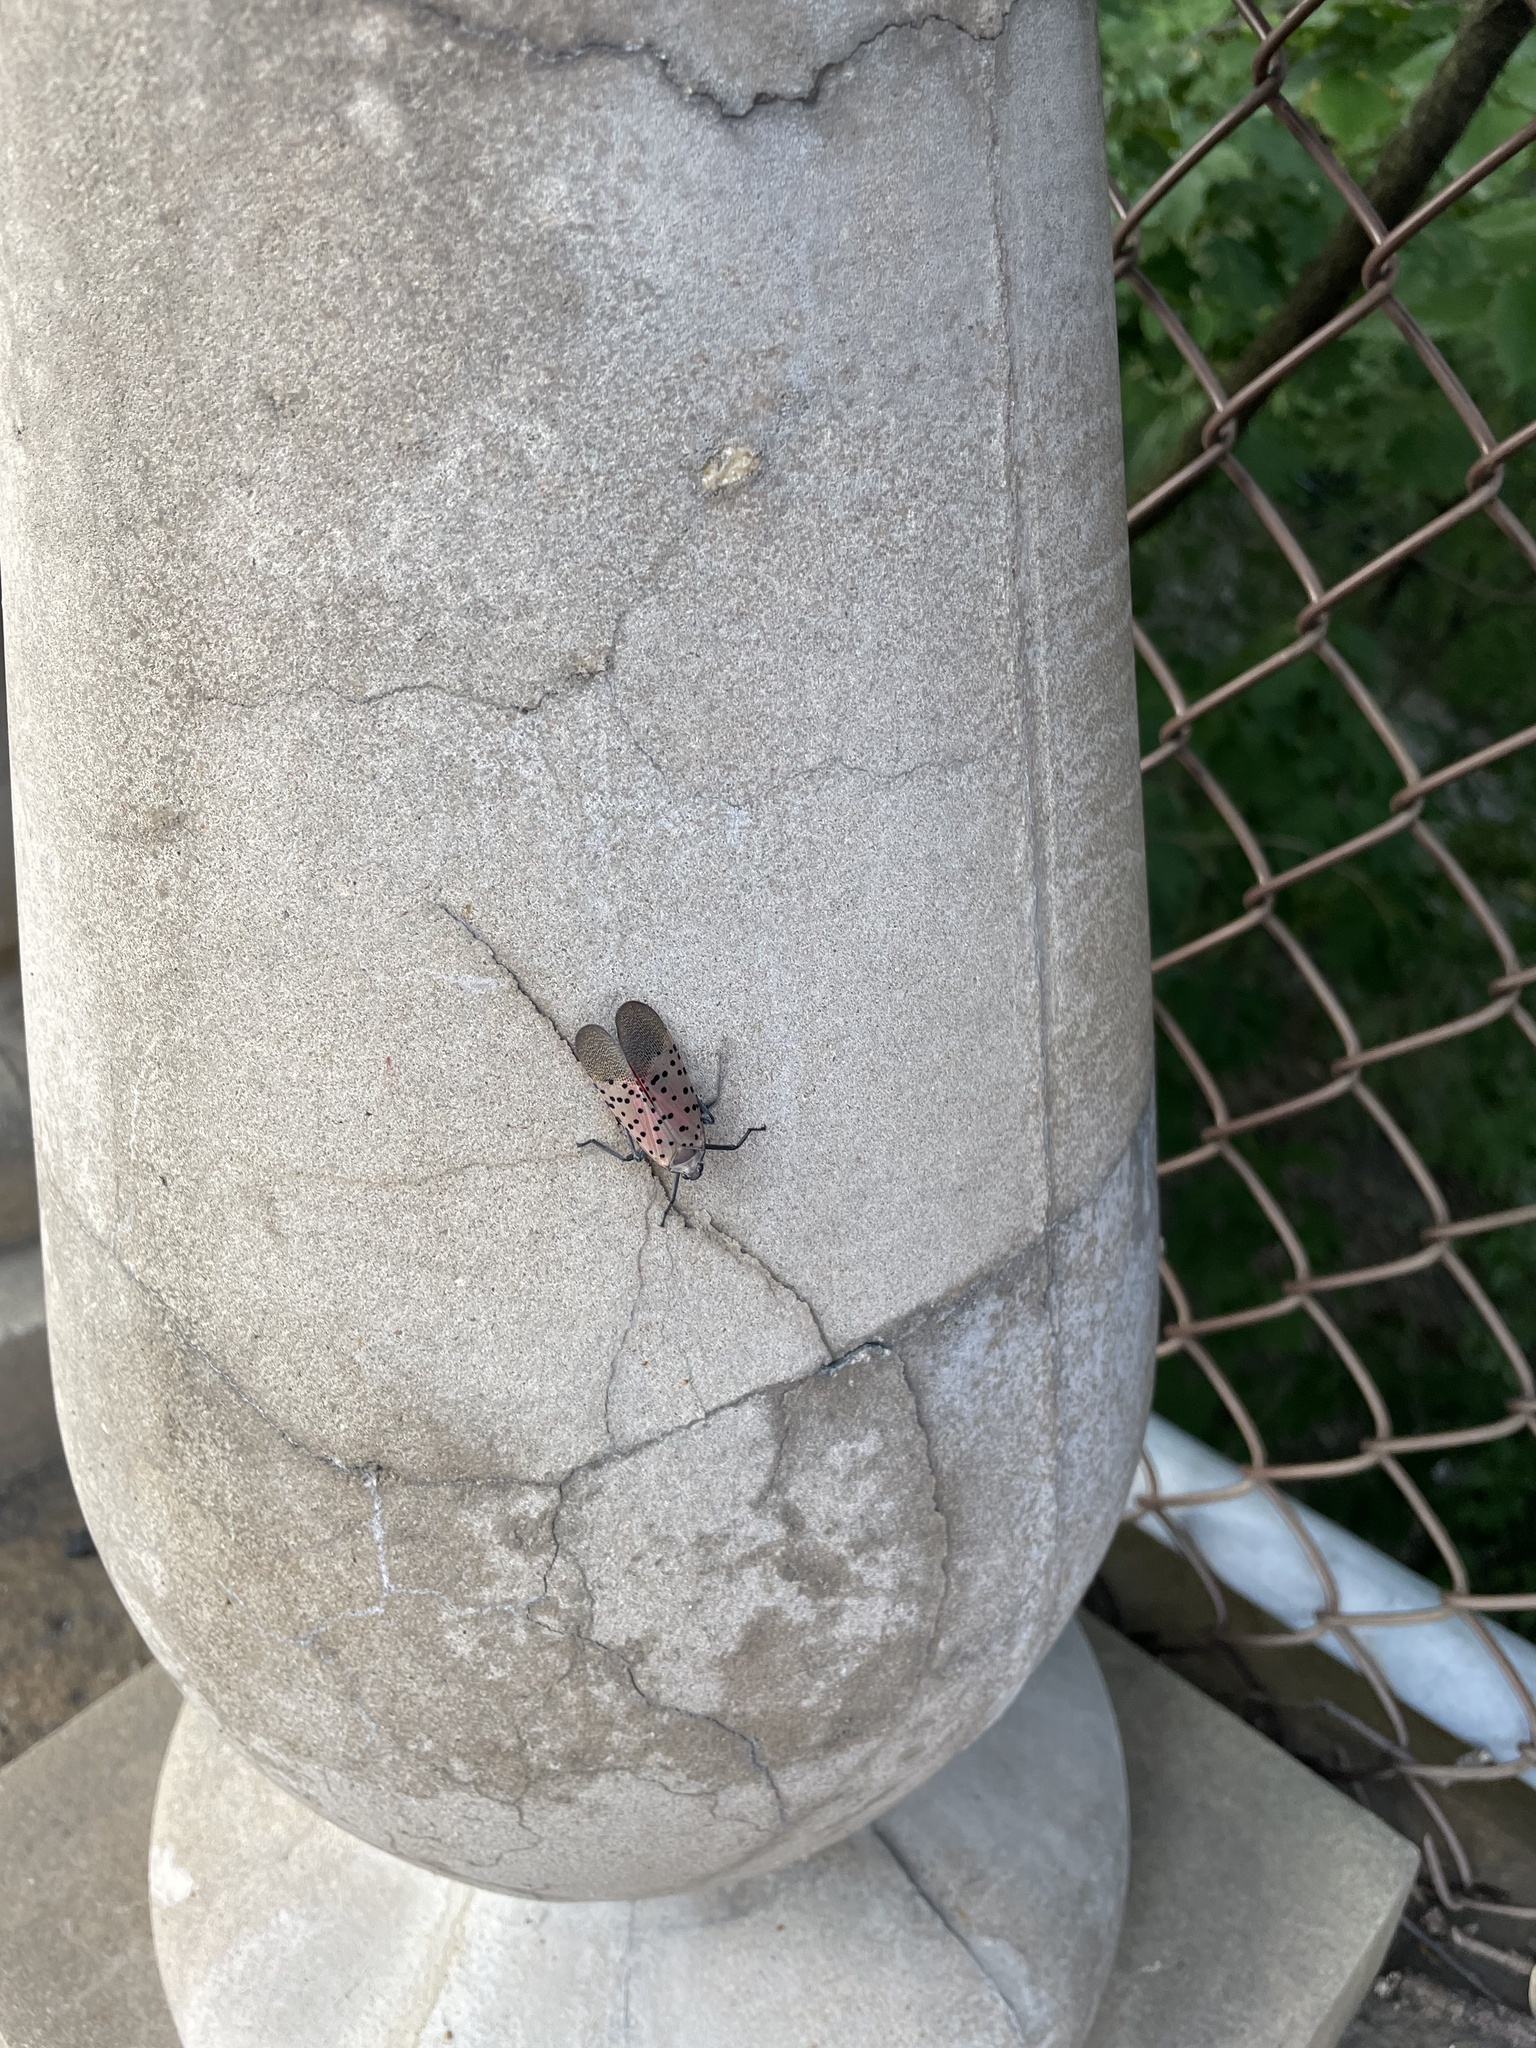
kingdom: Animalia
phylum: Arthropoda
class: Insecta
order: Hemiptera
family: Fulgoridae
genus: Lycorma
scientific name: Lycorma delicatula
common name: Spotted lanternfly
